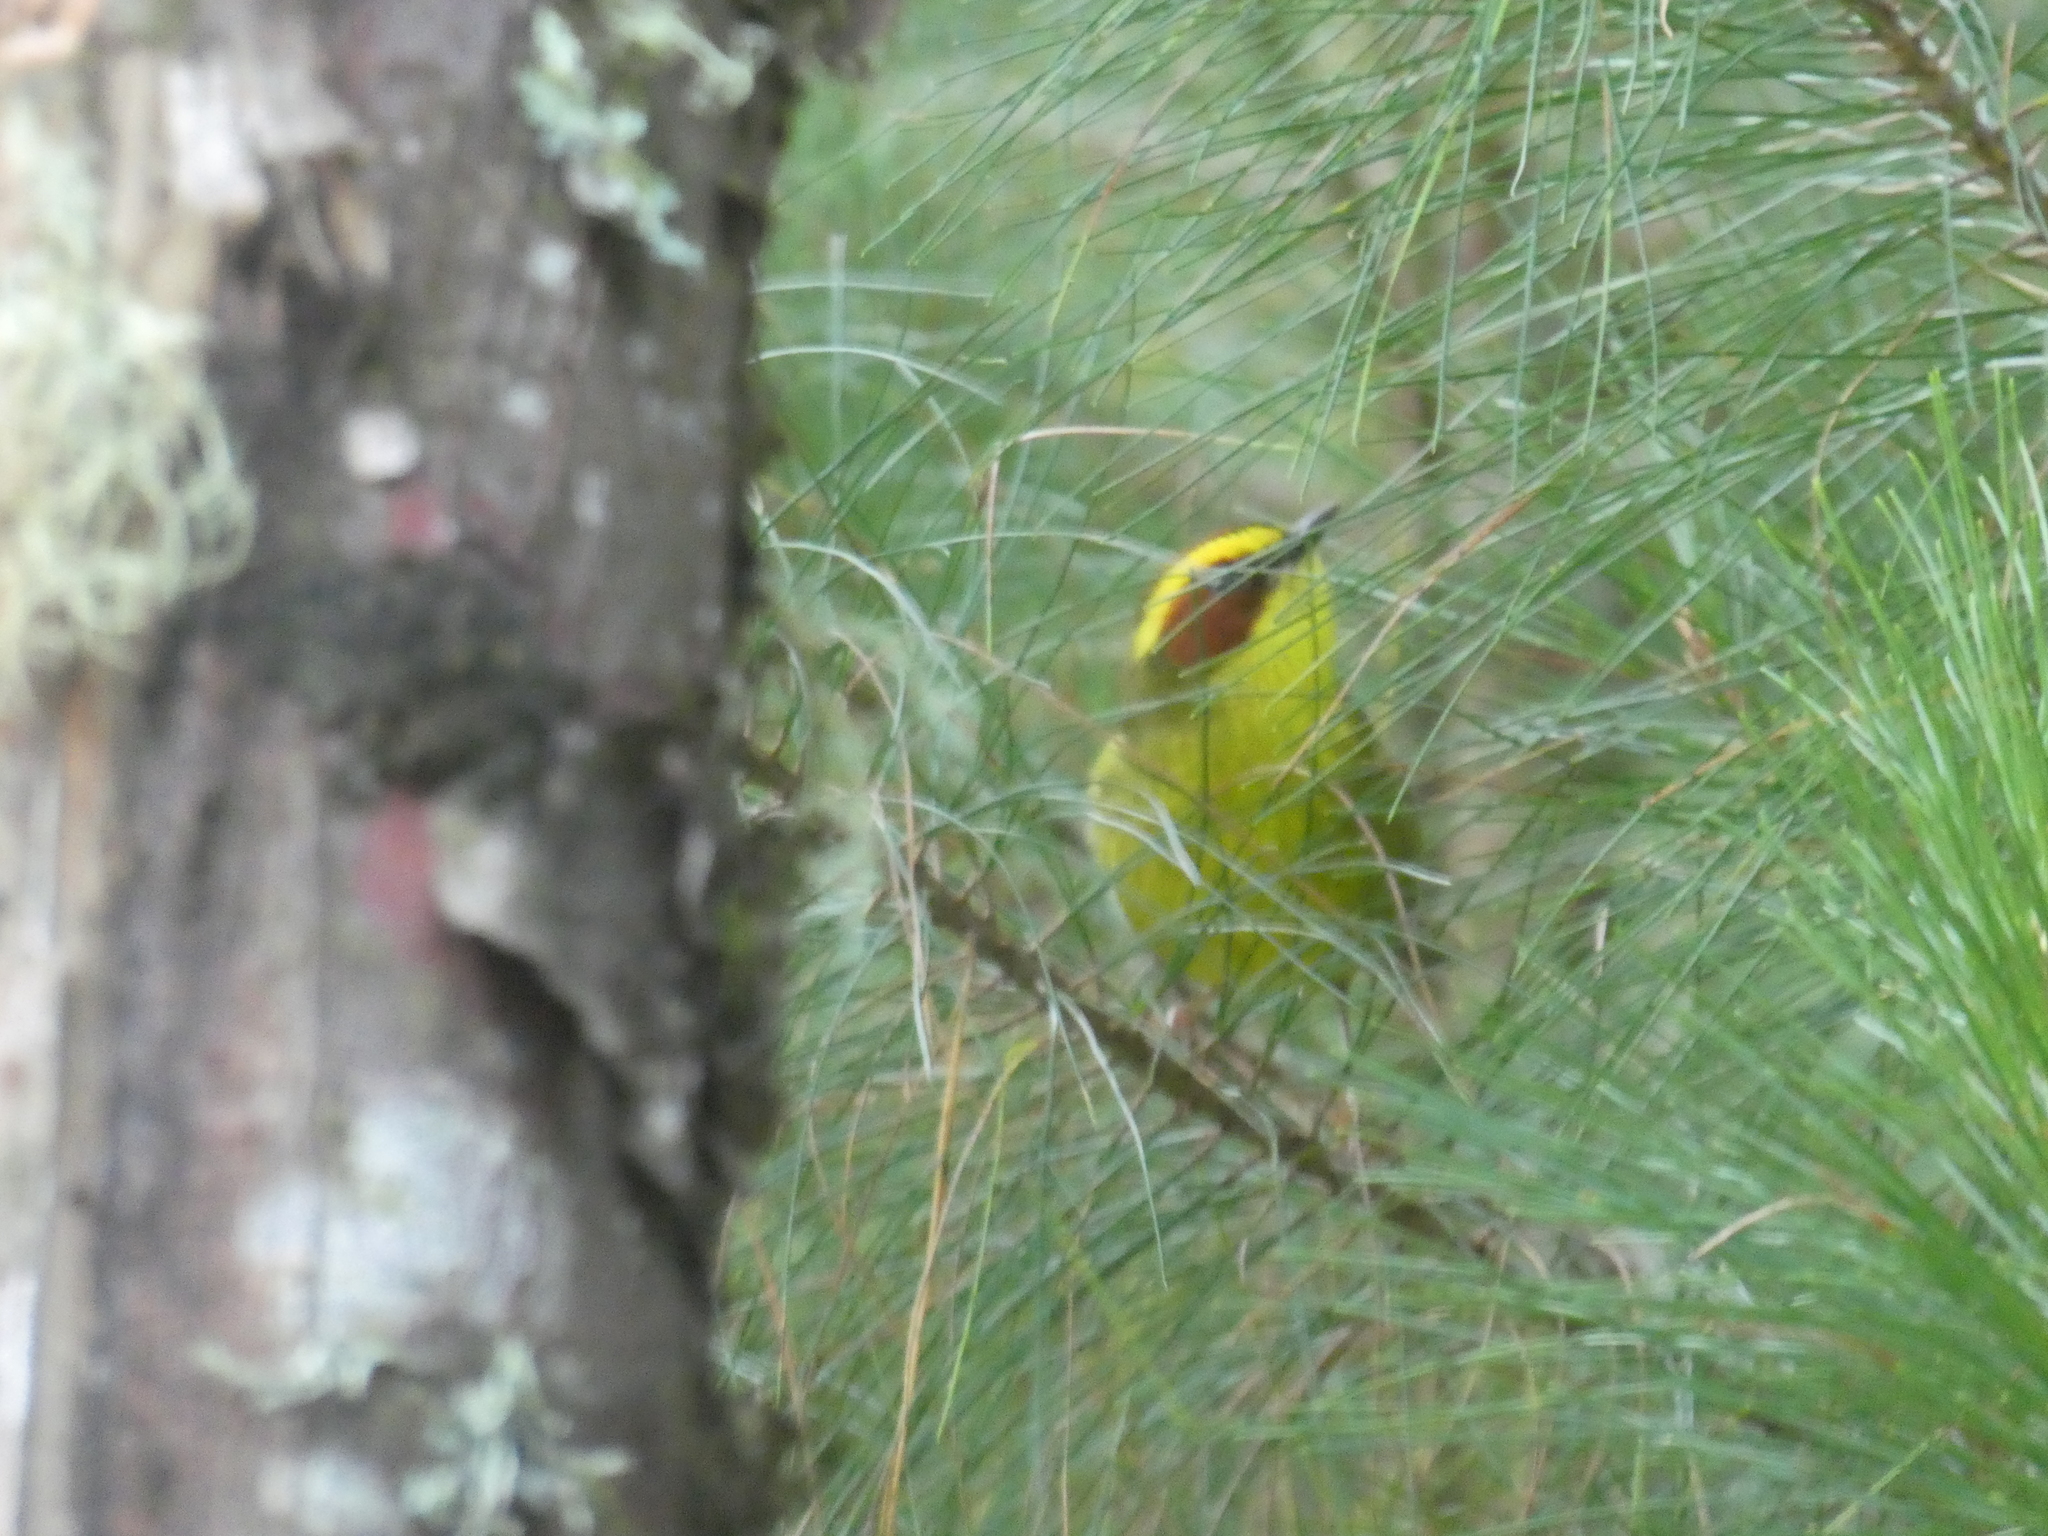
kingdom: Animalia
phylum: Chordata
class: Aves
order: Passeriformes
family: Parulidae
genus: Basileuterus
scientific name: Basileuterus belli
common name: Golden-browed warbler
